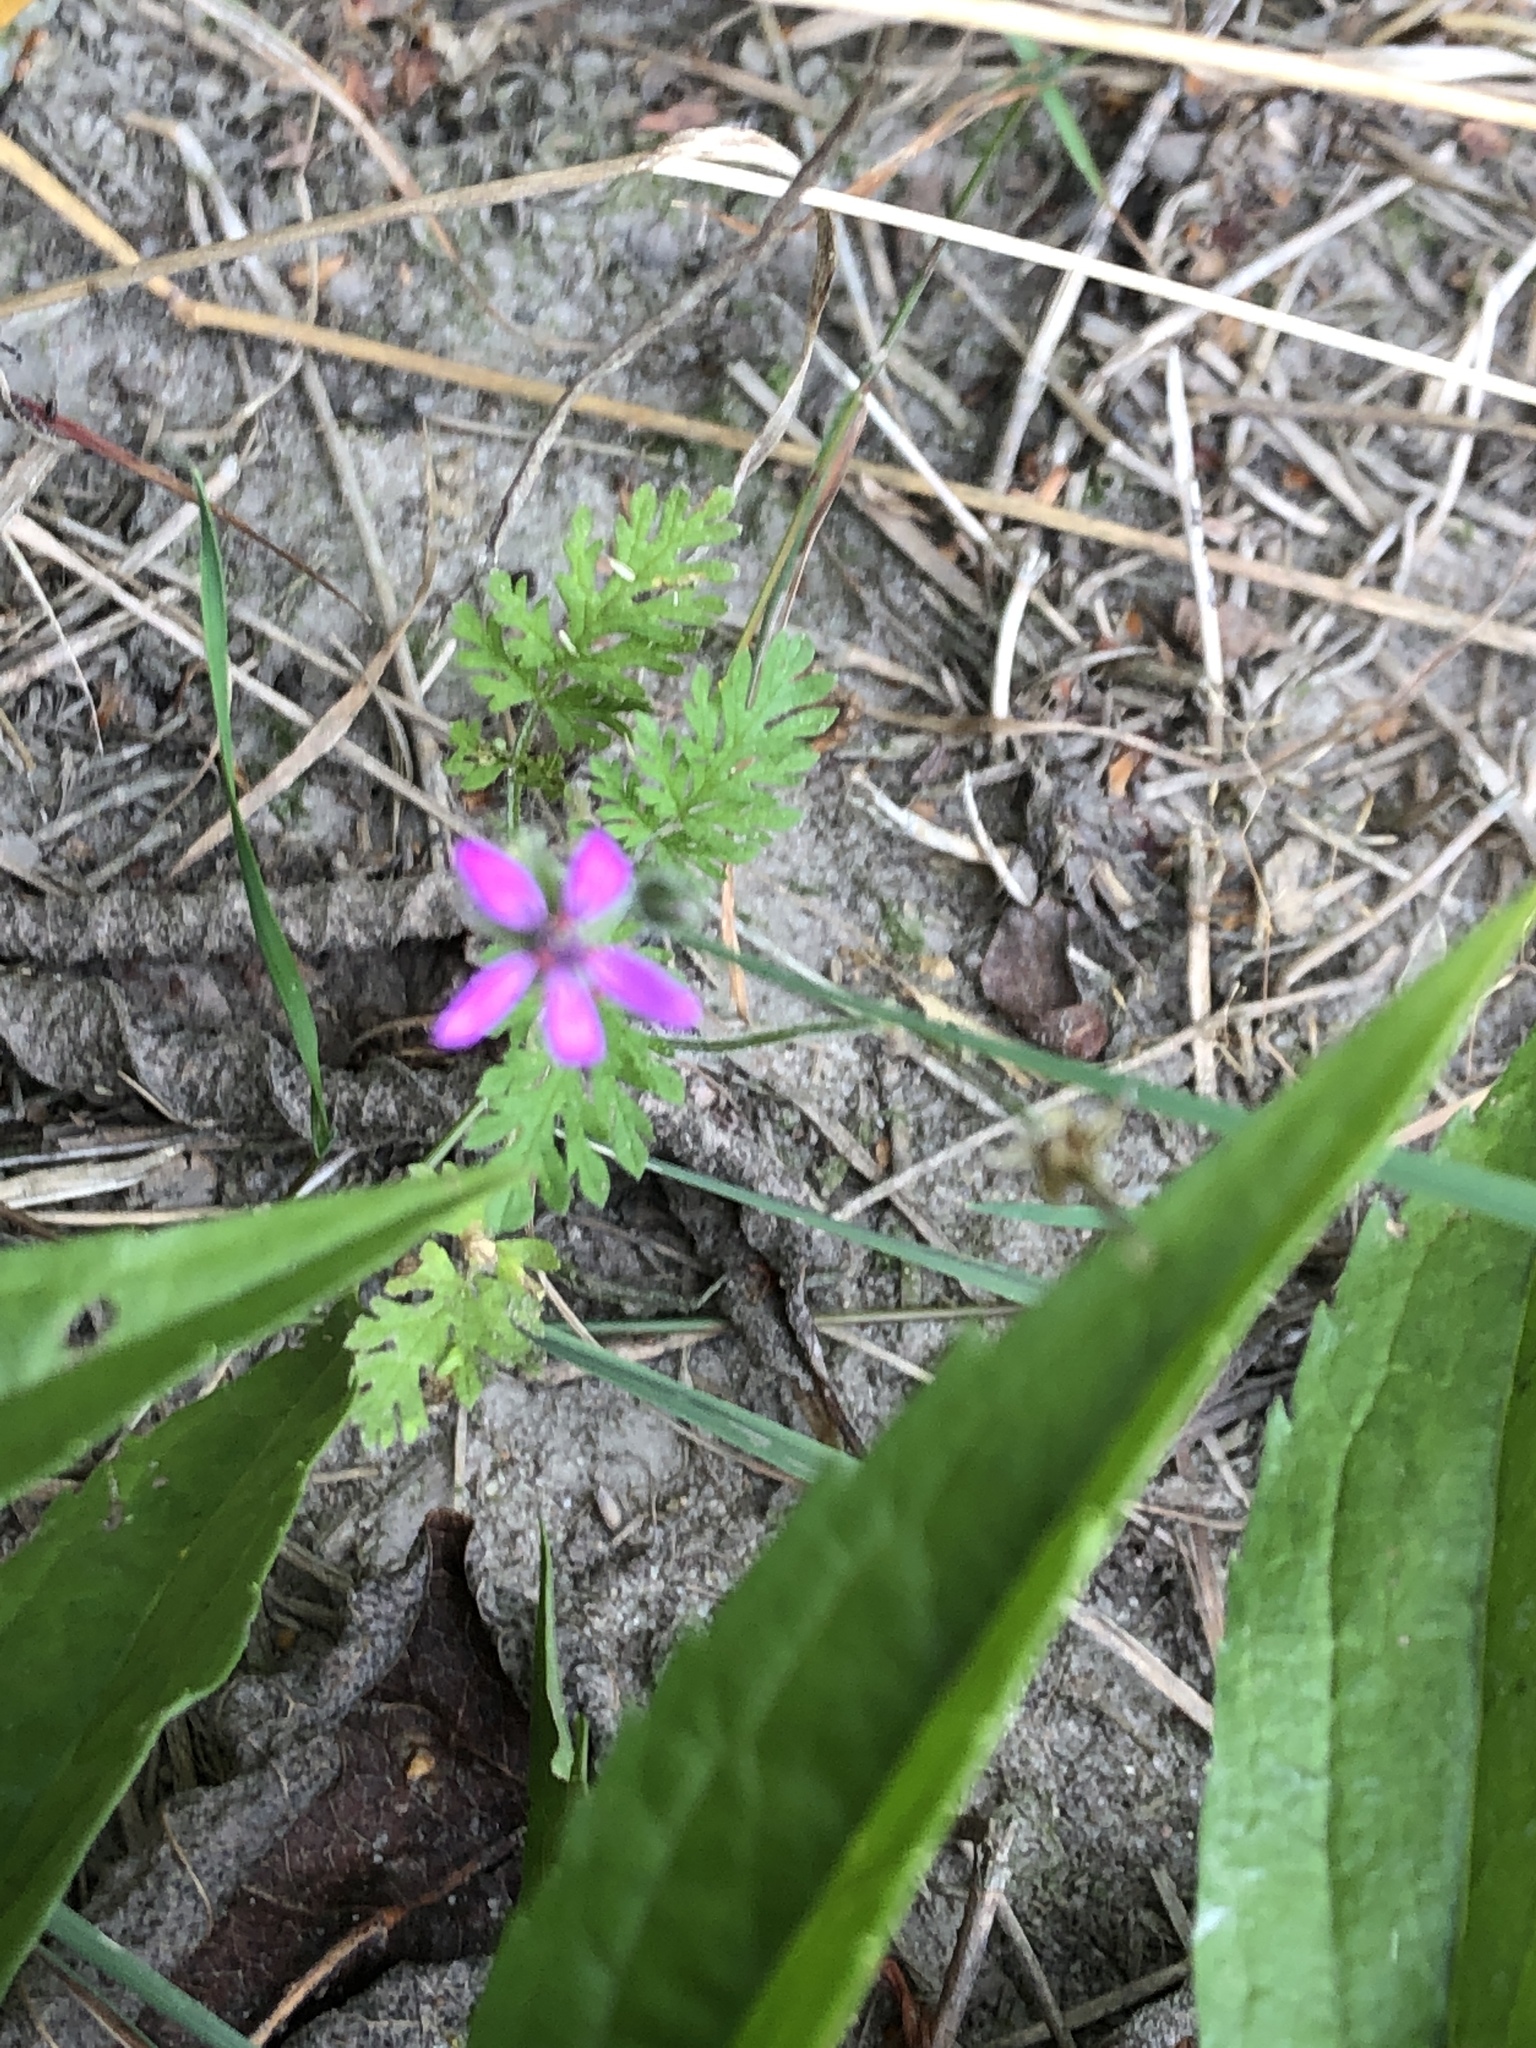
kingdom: Plantae
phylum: Tracheophyta
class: Magnoliopsida
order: Geraniales
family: Geraniaceae
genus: Erodium
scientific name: Erodium cicutarium
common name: Common stork's-bill
